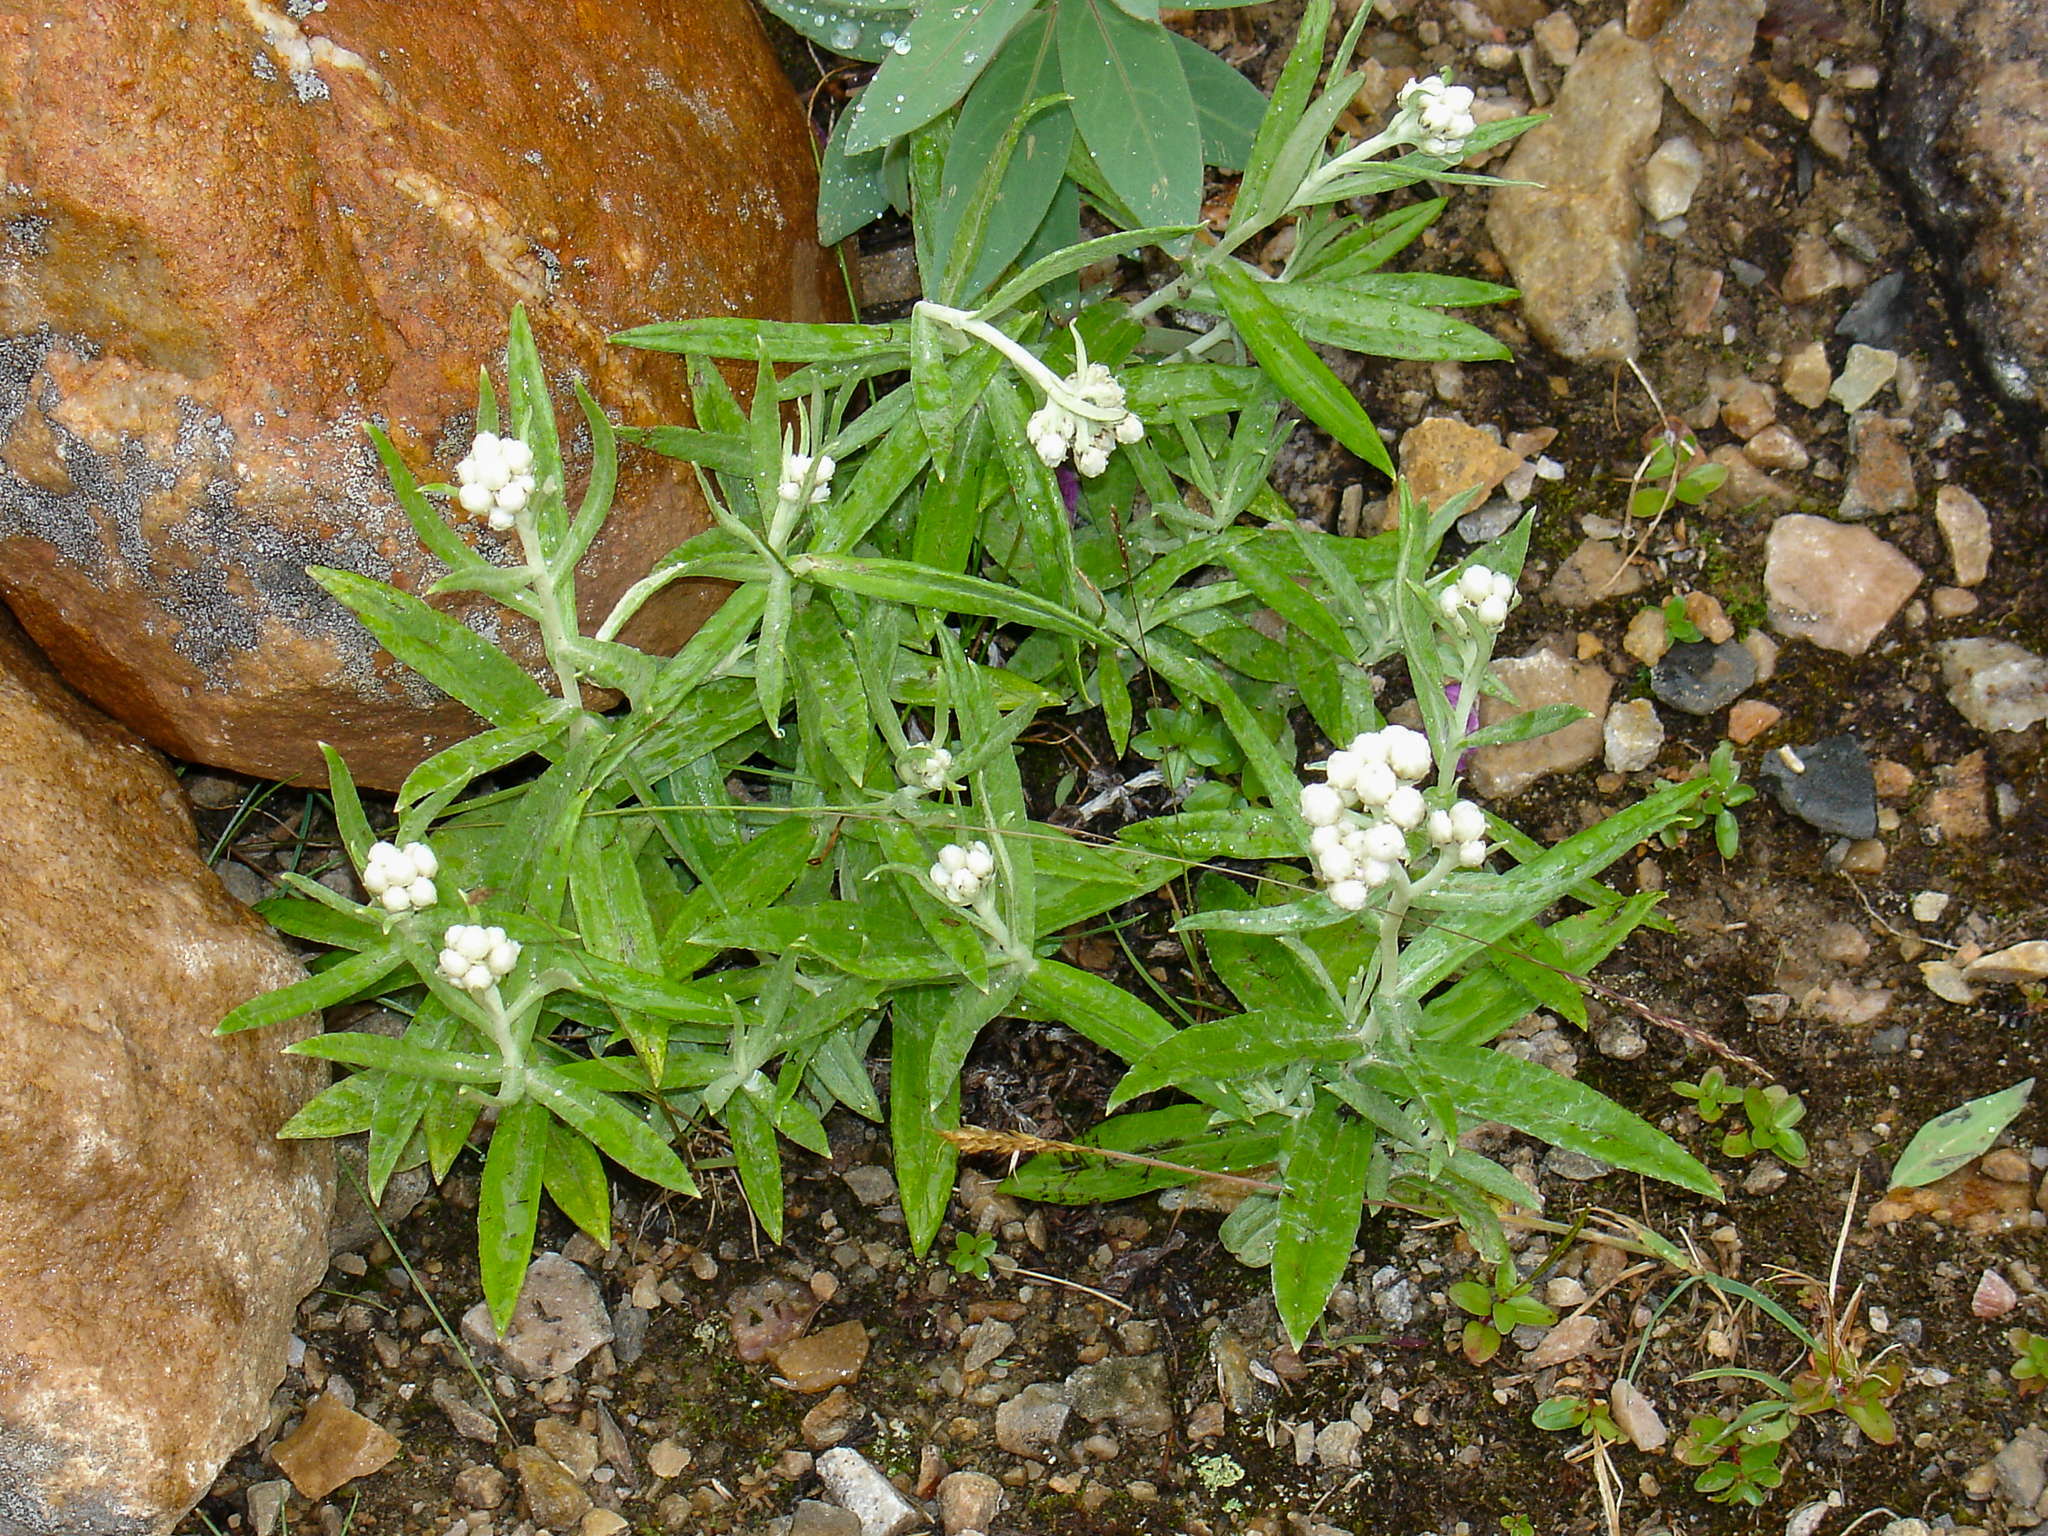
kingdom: Plantae
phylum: Tracheophyta
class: Magnoliopsida
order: Asterales
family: Asteraceae
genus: Anaphalis
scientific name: Anaphalis margaritacea
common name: Pearly everlasting
